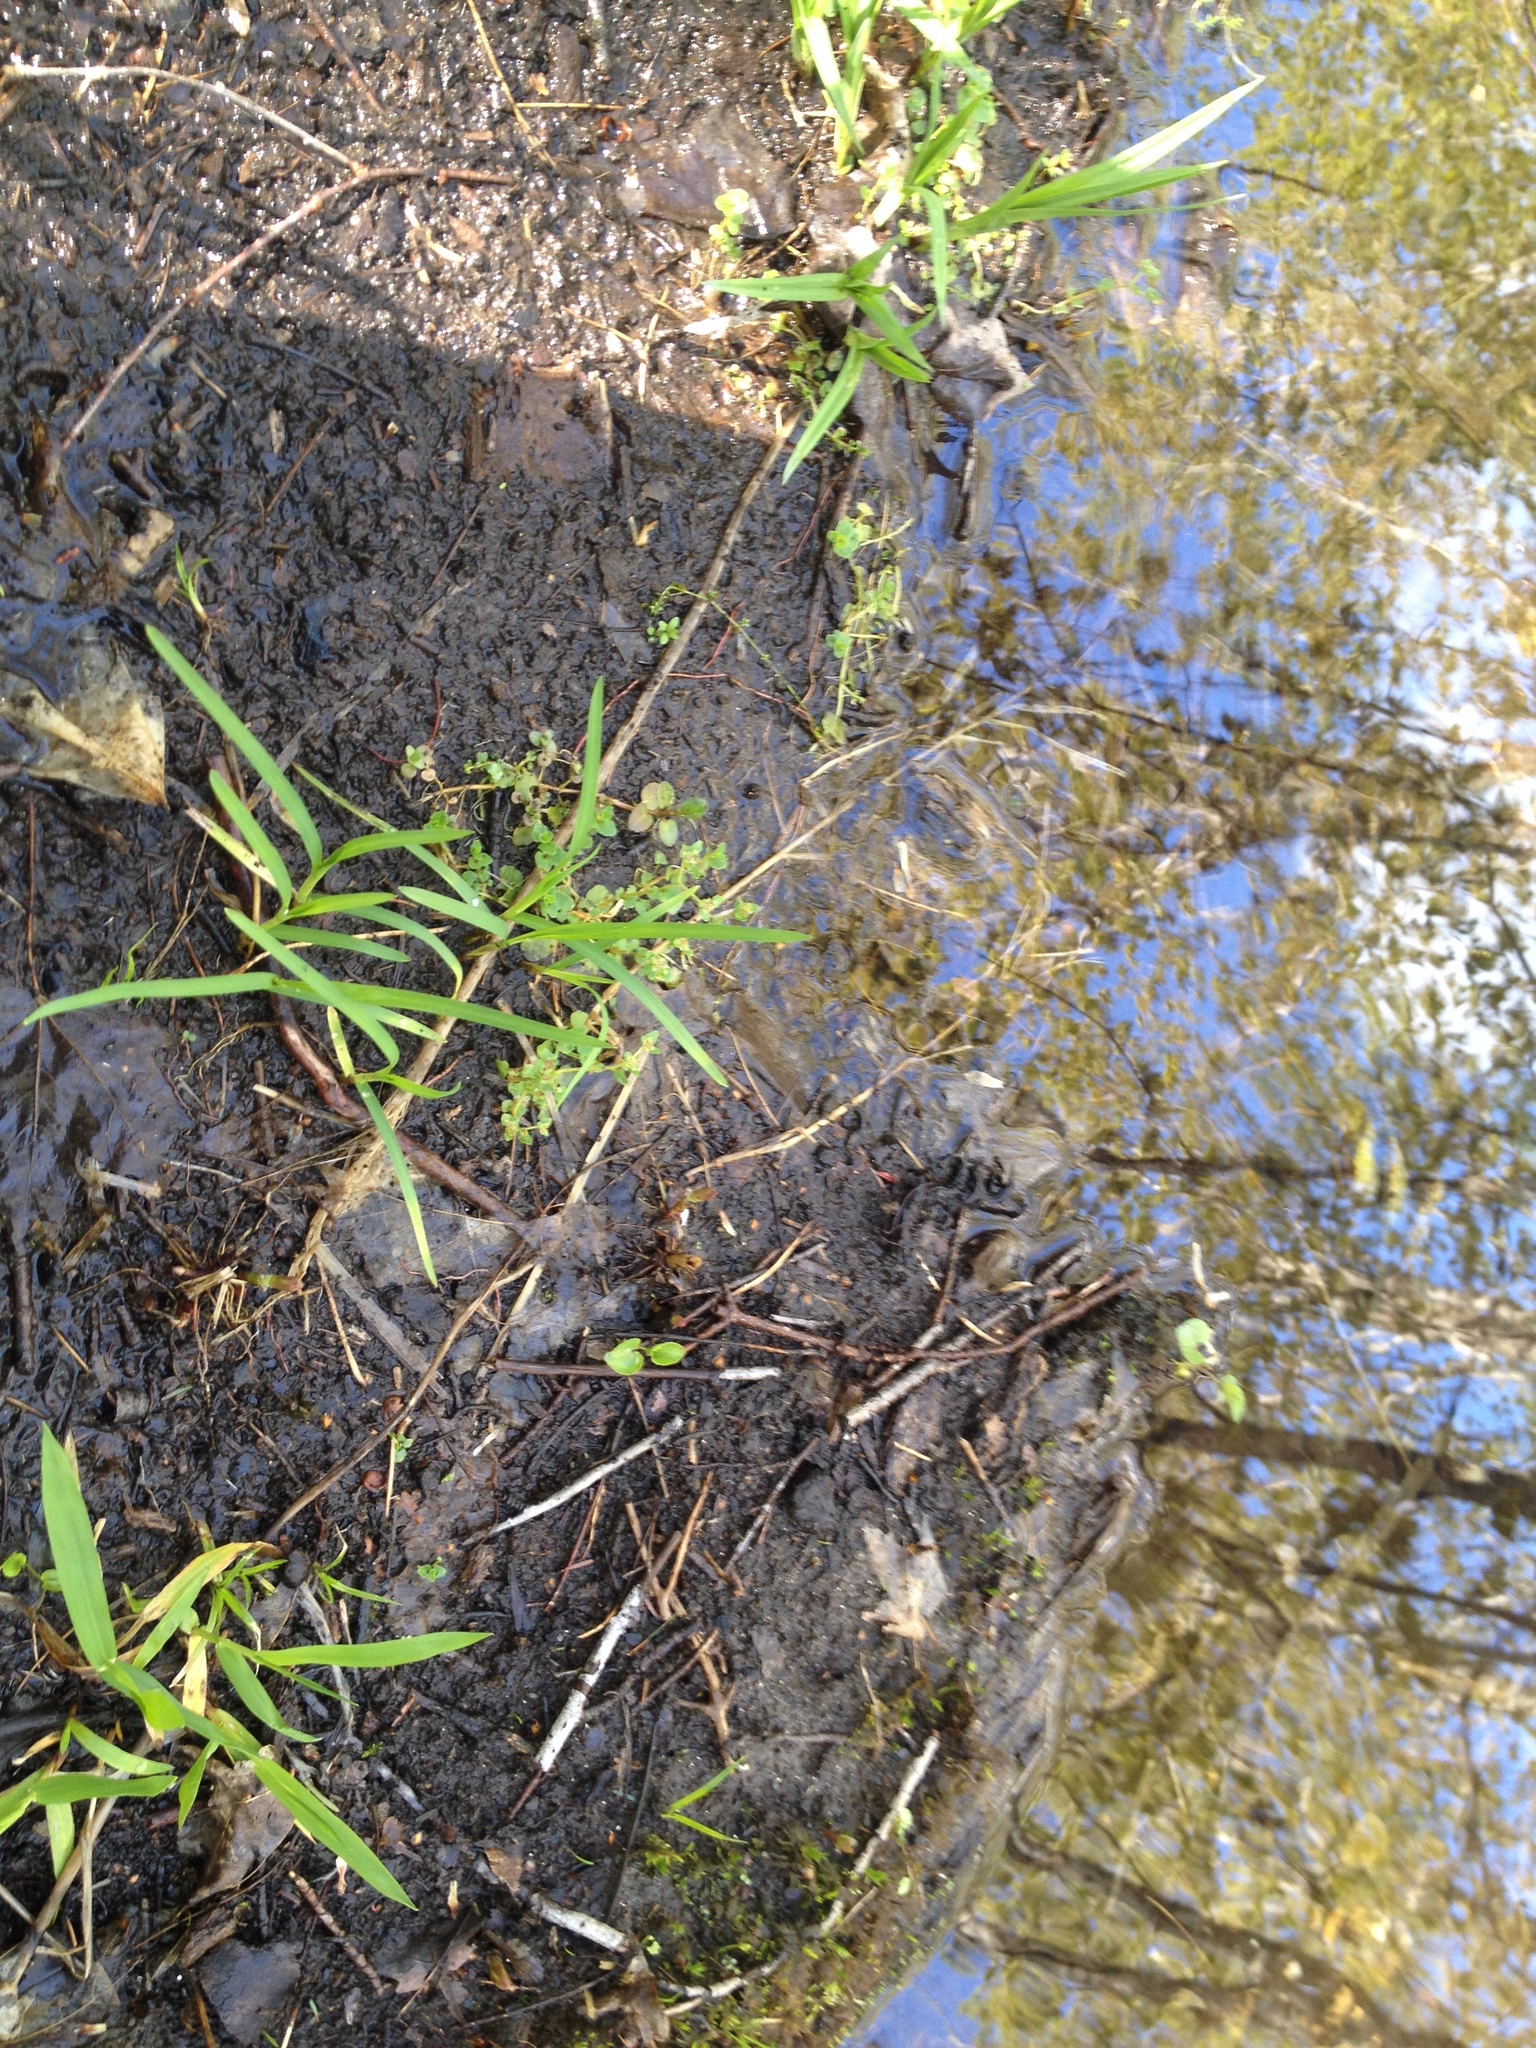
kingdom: Plantae
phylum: Tracheophyta
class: Magnoliopsida
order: Saxifragales
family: Saxifragaceae
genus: Chrysosplenium
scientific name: Chrysosplenium americanum
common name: American golden-saxifrage
